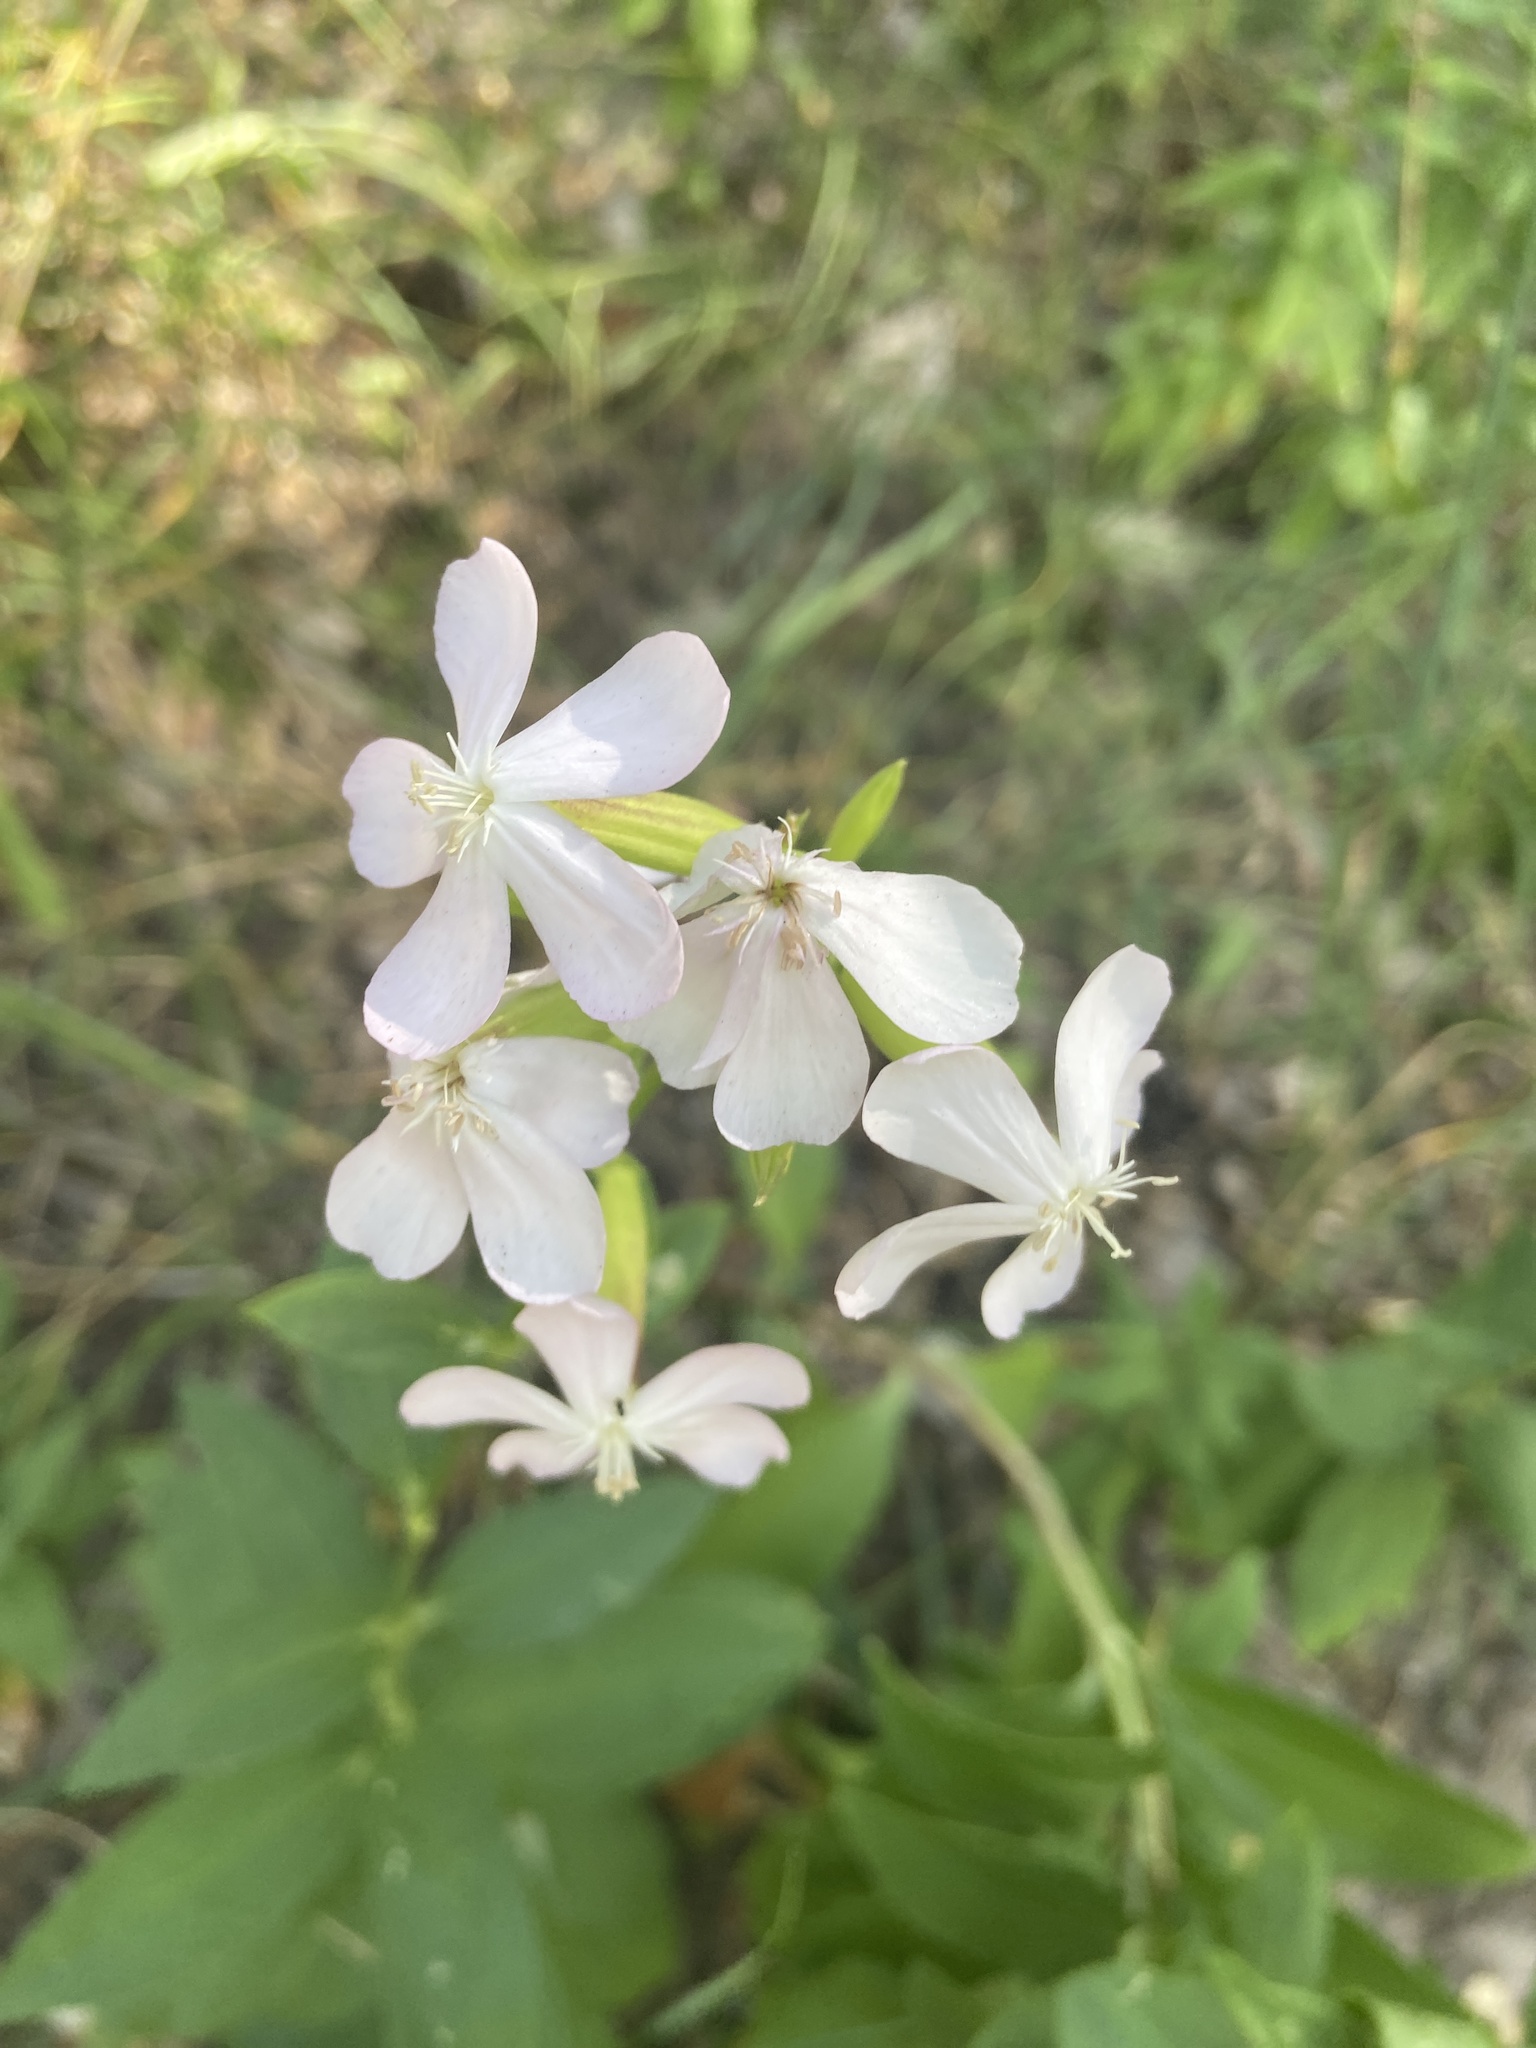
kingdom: Plantae
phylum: Tracheophyta
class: Magnoliopsida
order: Caryophyllales
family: Caryophyllaceae
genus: Saponaria
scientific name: Saponaria officinalis
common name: Soapwort
